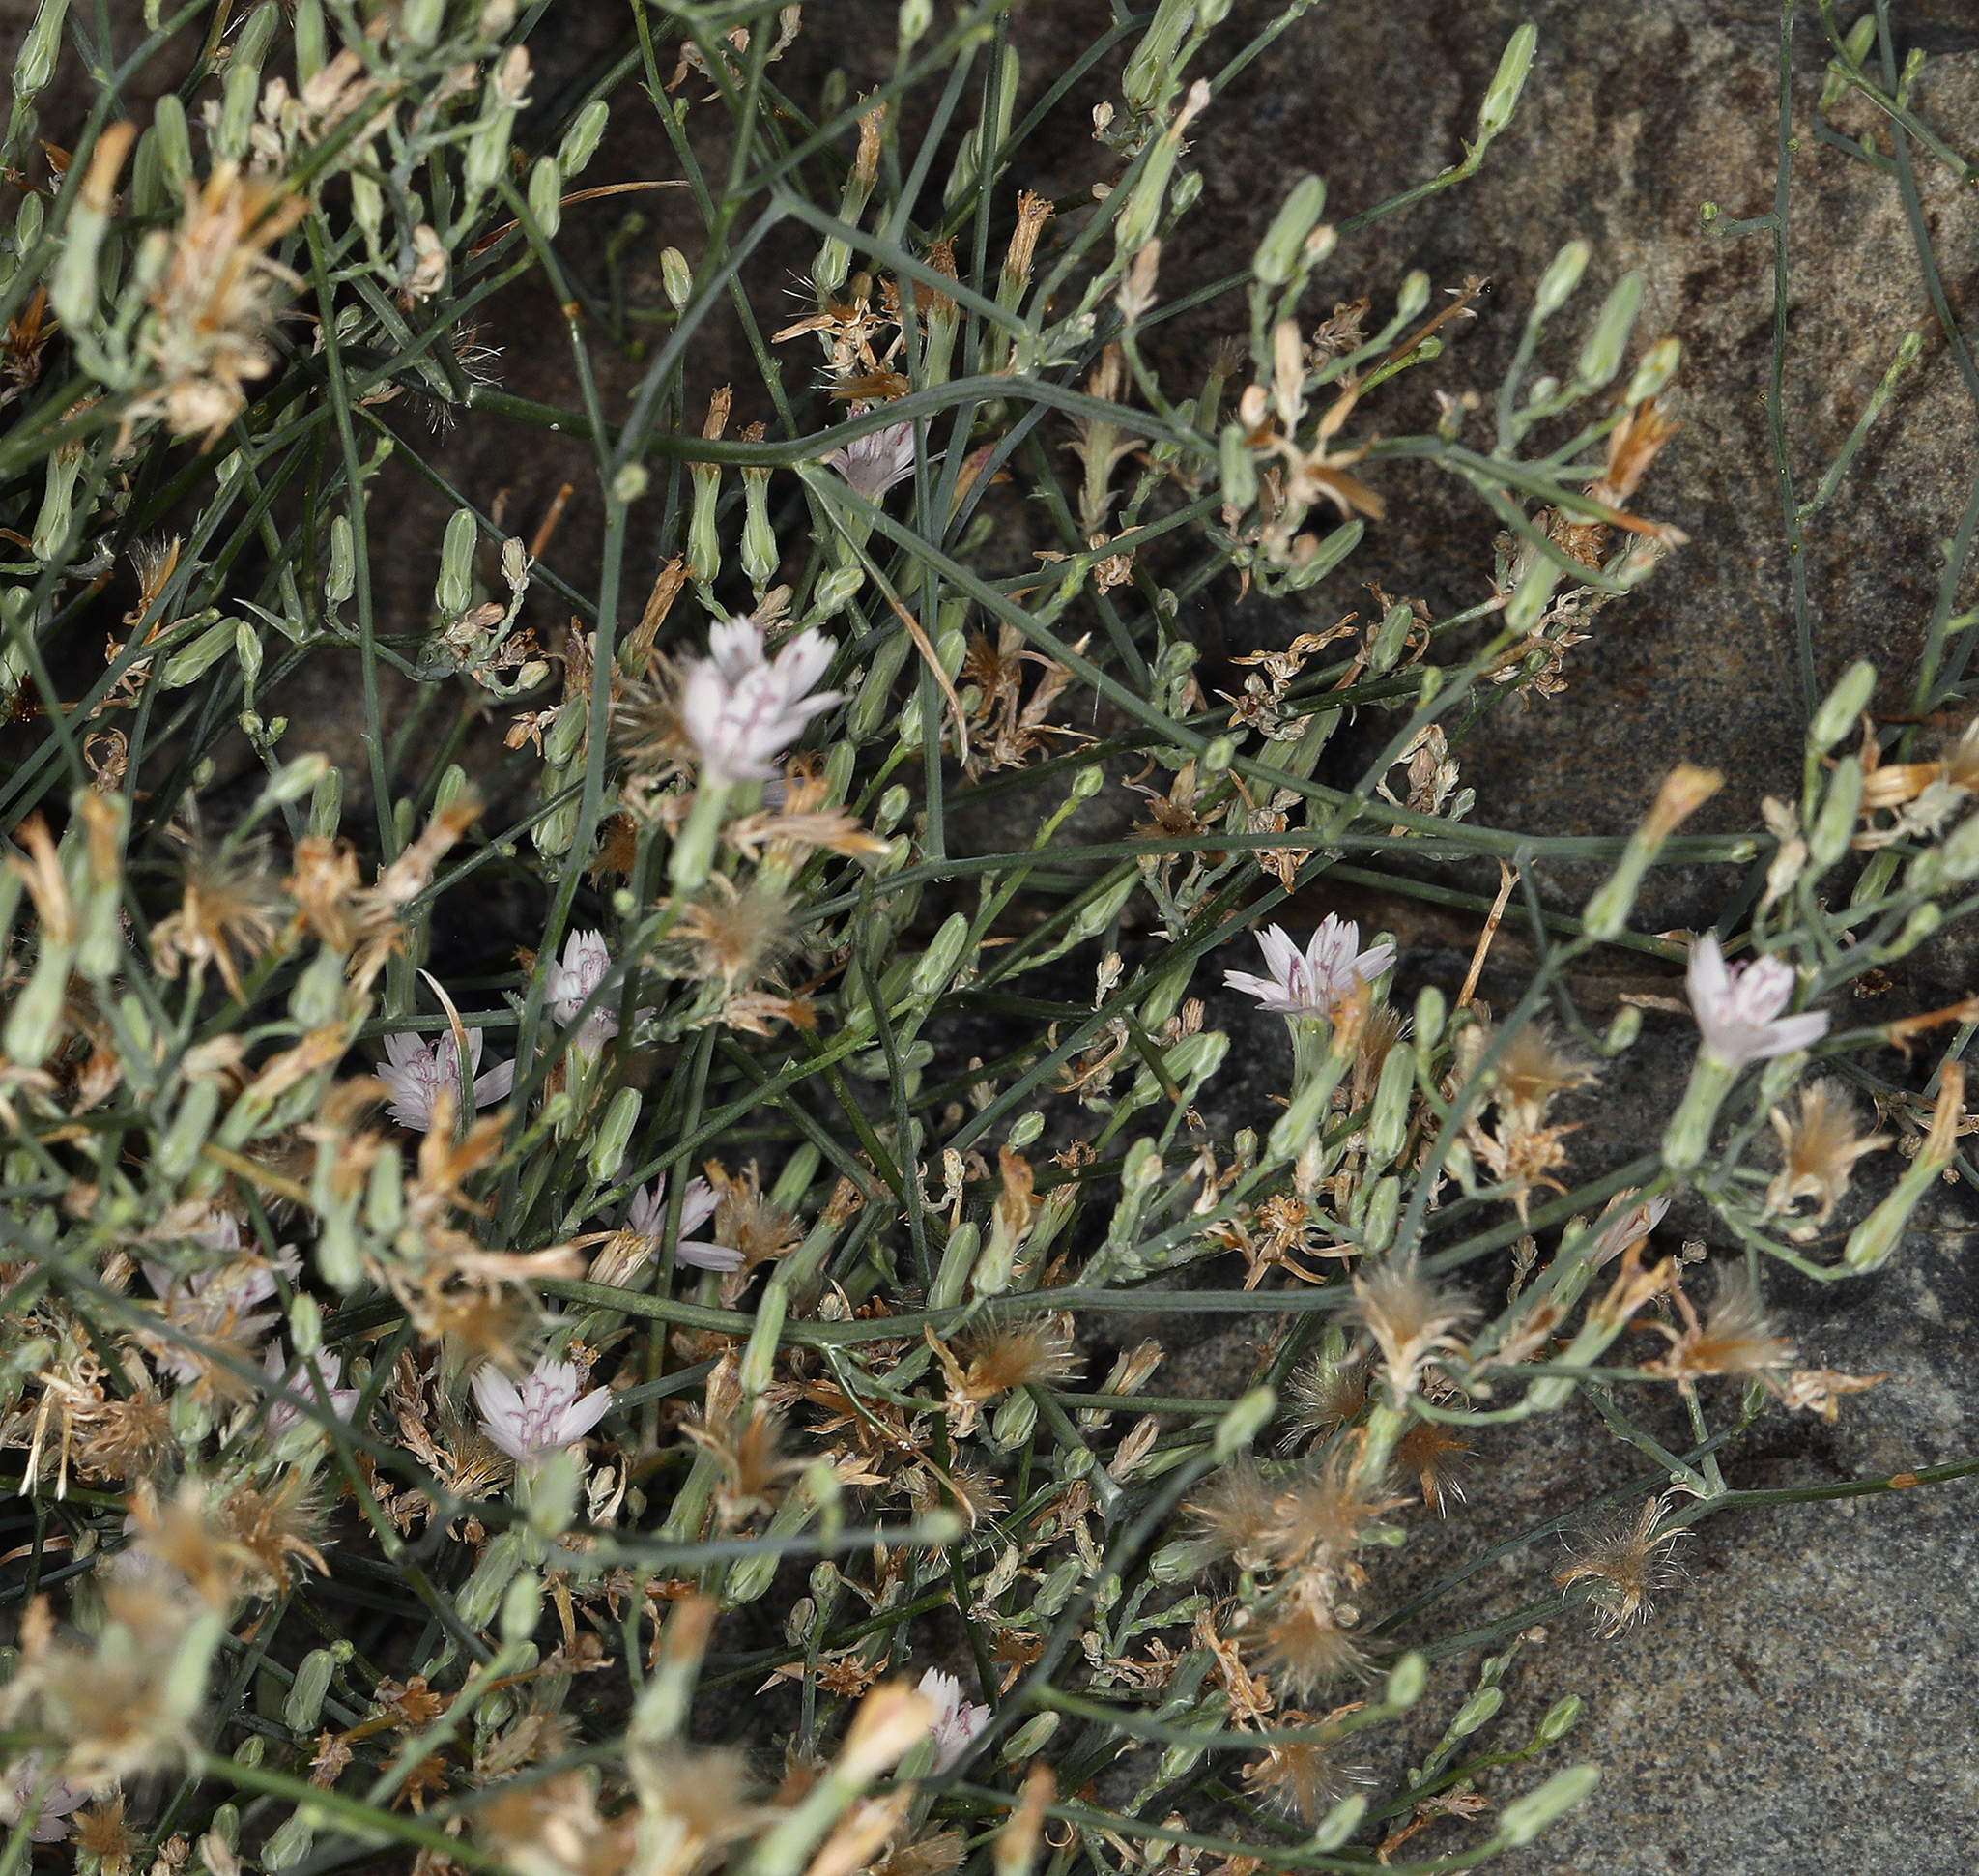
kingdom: Plantae
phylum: Tracheophyta
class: Magnoliopsida
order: Asterales
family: Asteraceae
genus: Stephanomeria
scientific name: Stephanomeria pauciflora
